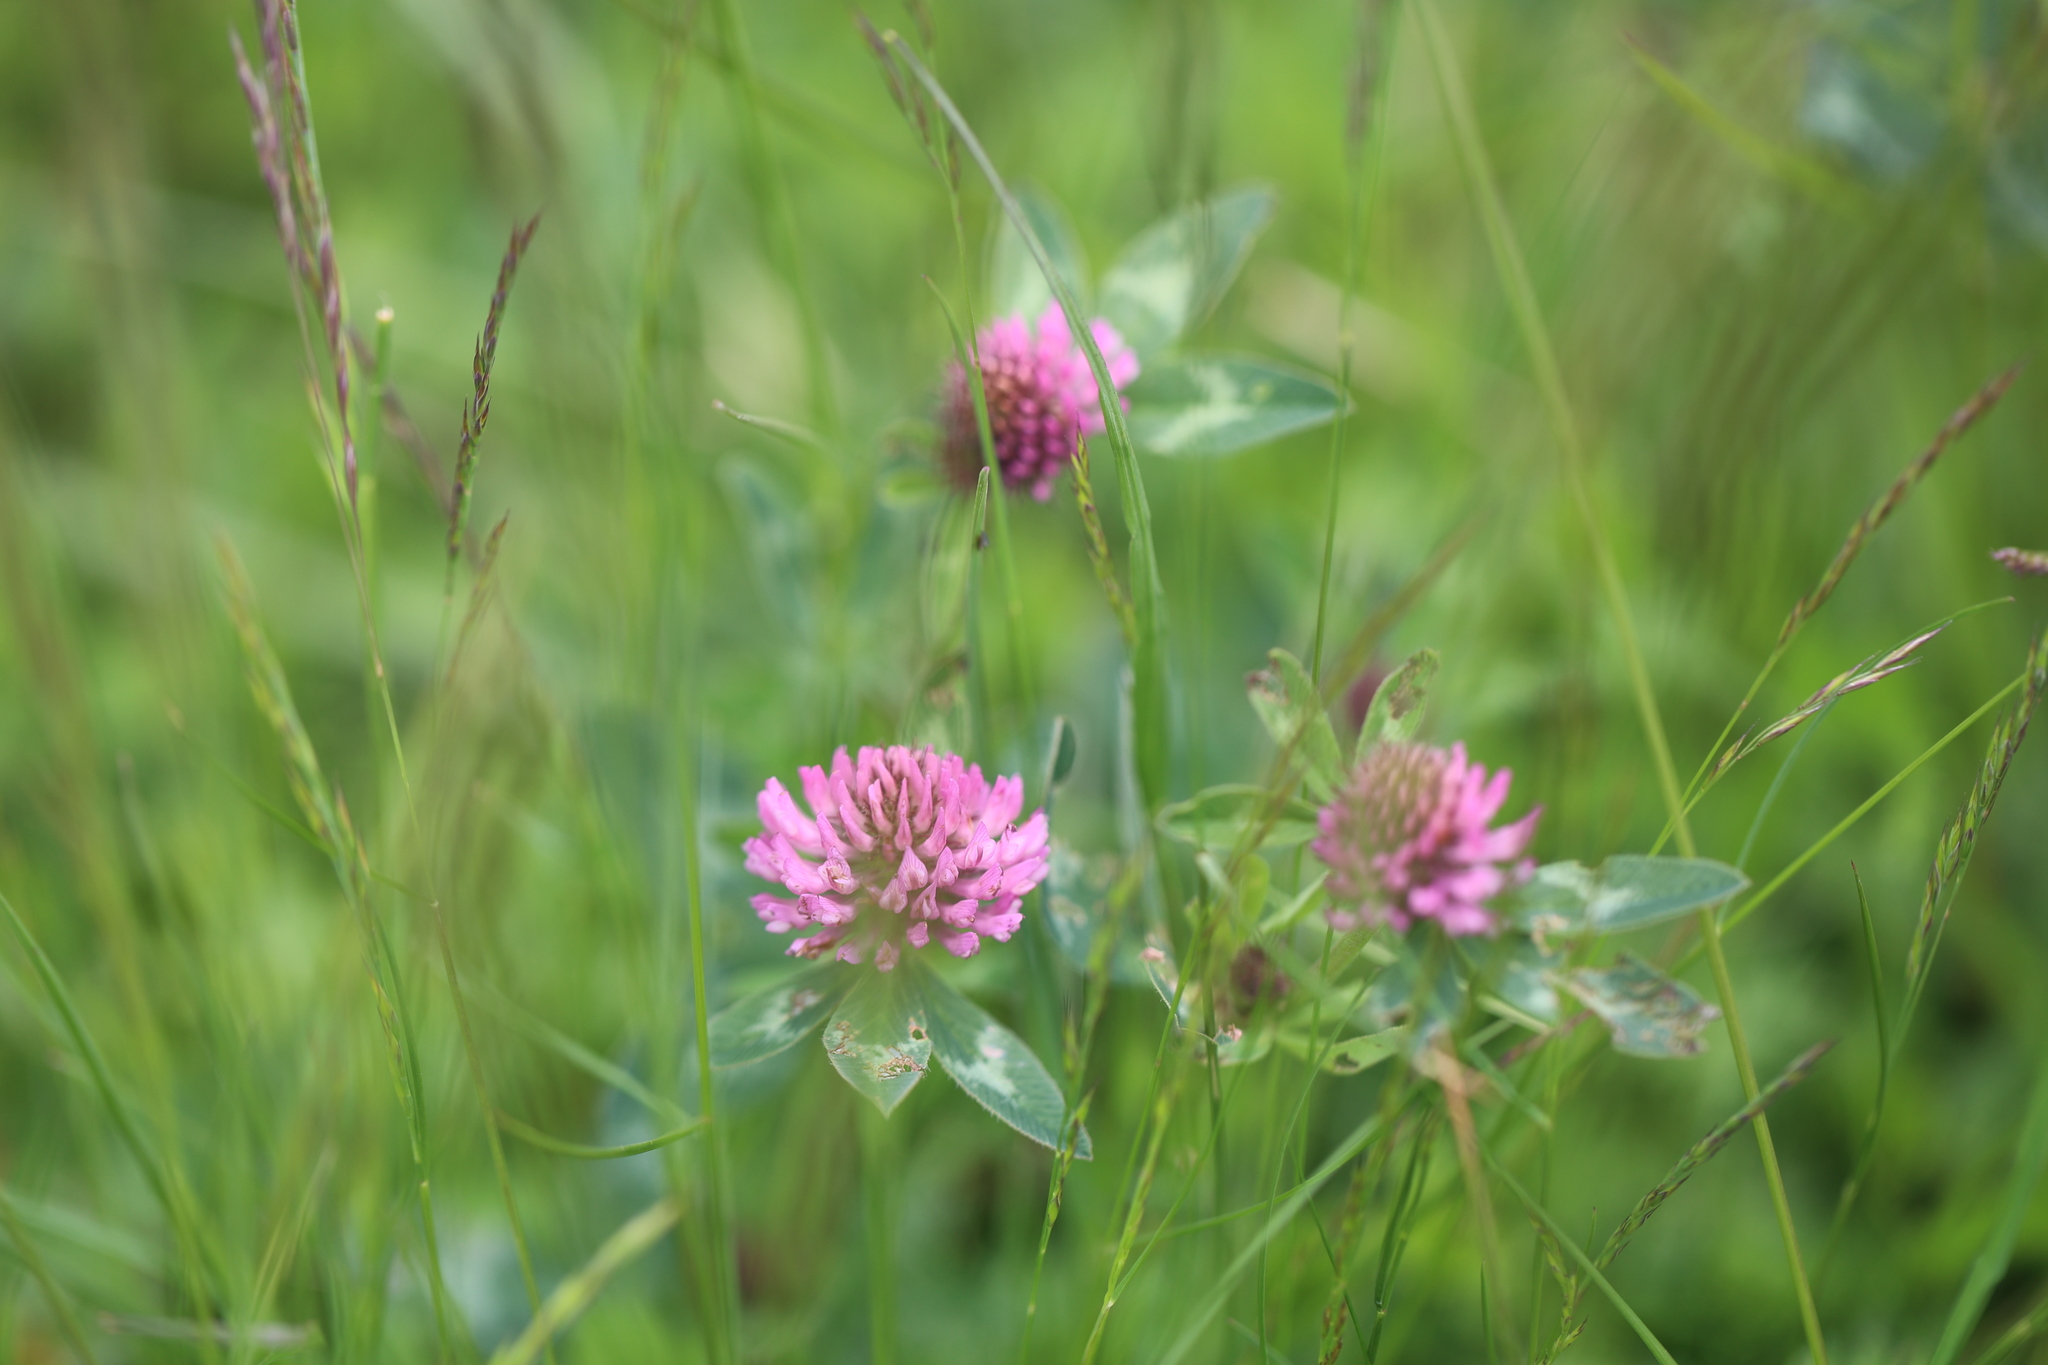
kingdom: Plantae
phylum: Tracheophyta
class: Magnoliopsida
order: Fabales
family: Fabaceae
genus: Trifolium
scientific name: Trifolium pratense
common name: Red clover
